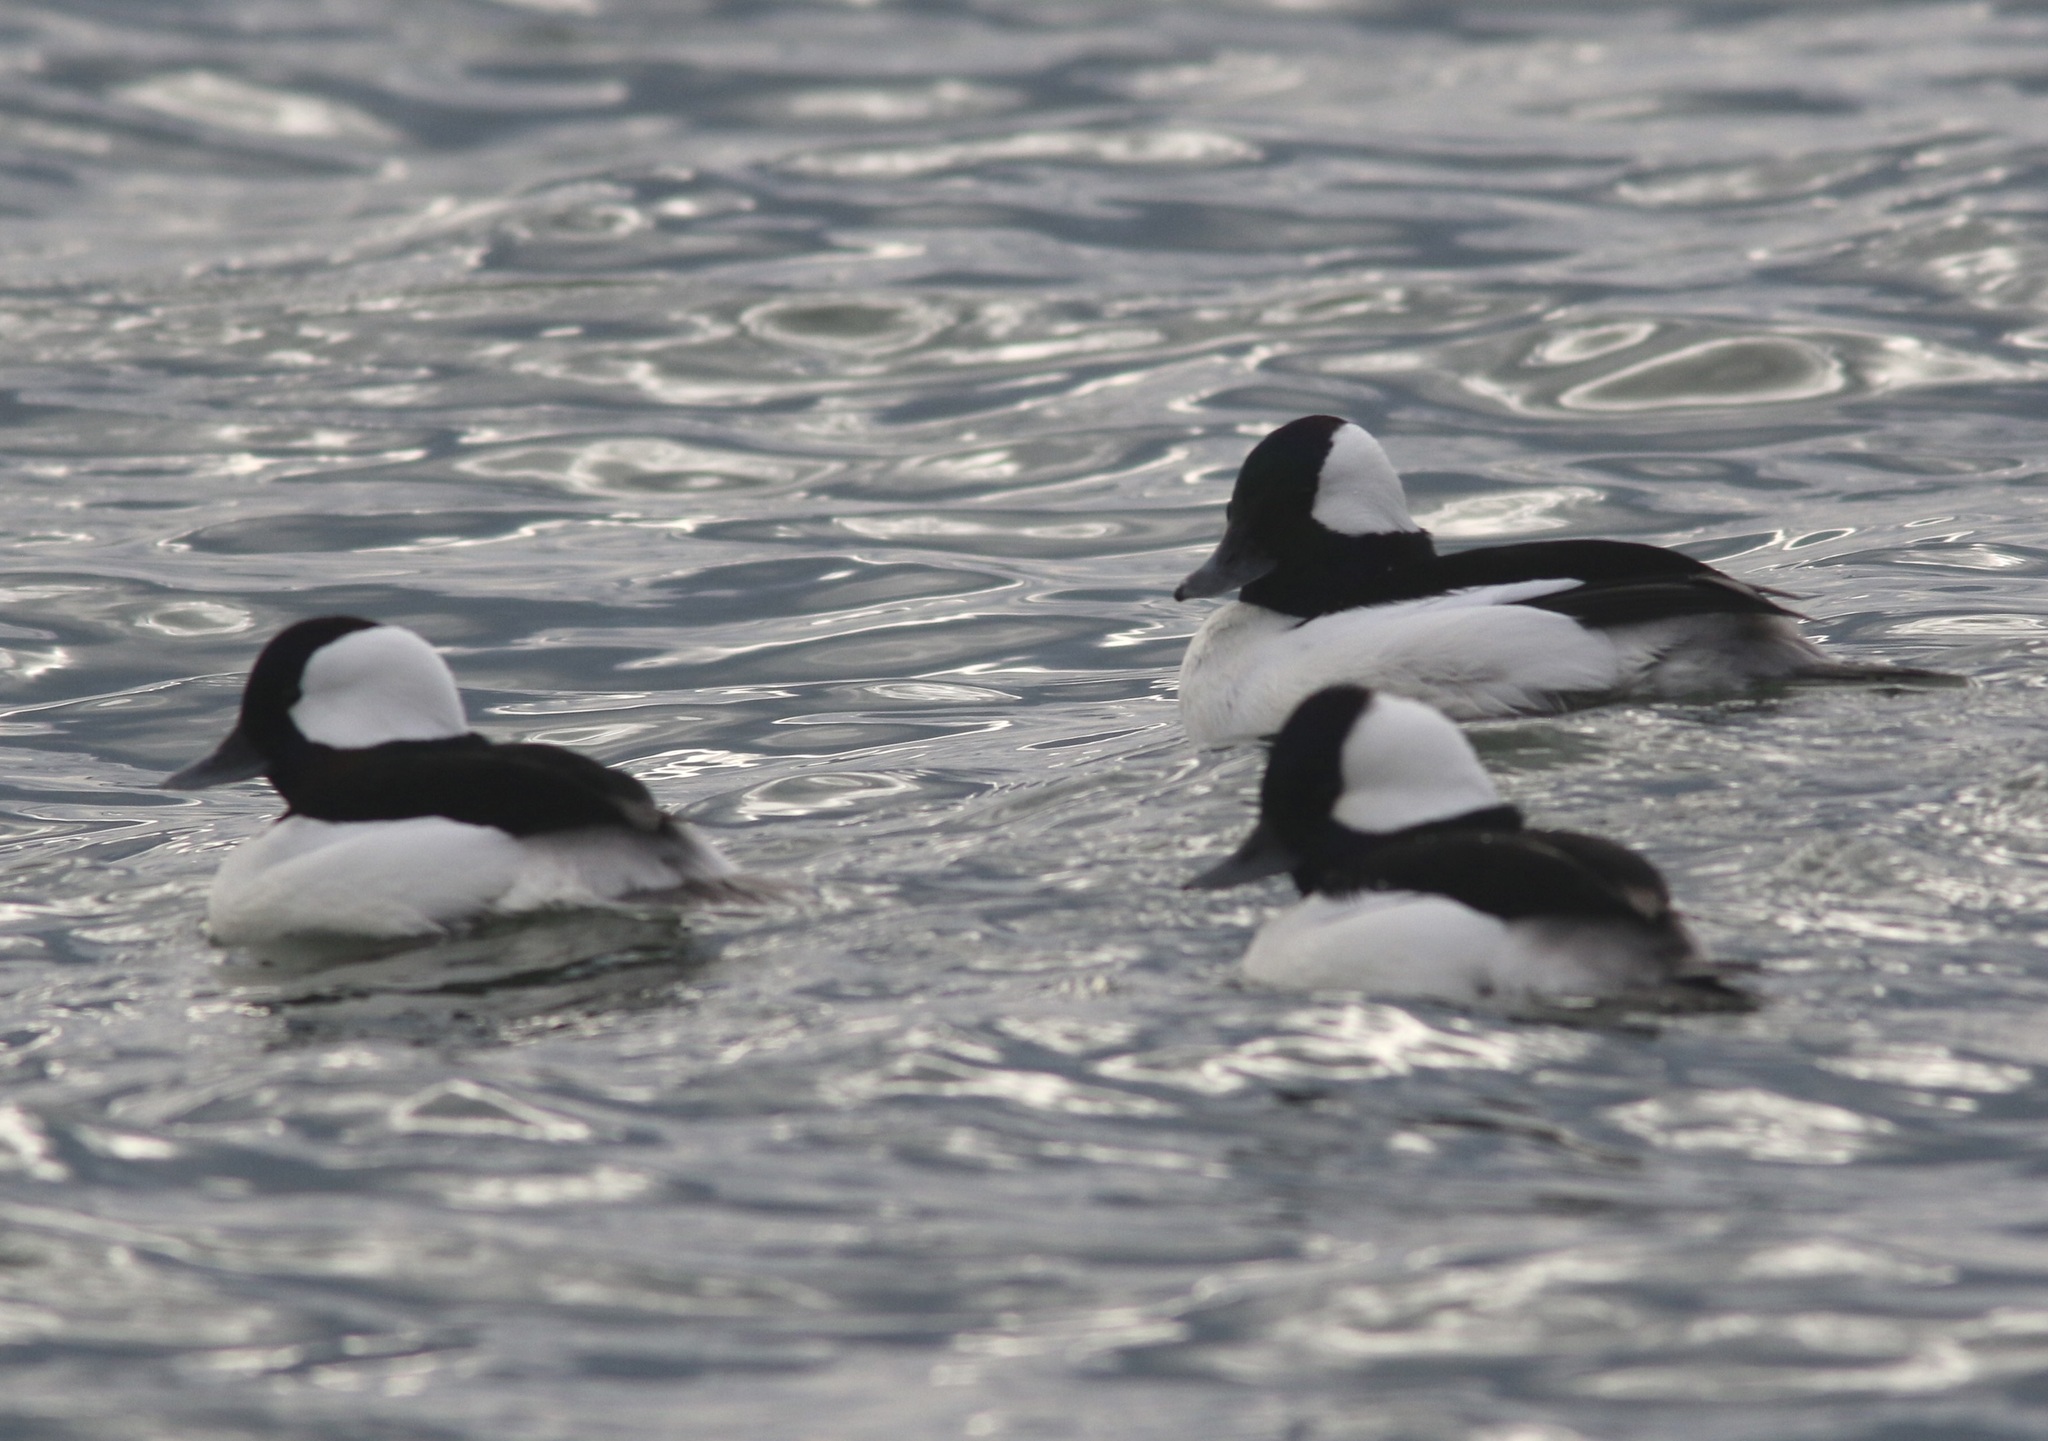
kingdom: Animalia
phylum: Chordata
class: Aves
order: Anseriformes
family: Anatidae
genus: Bucephala
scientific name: Bucephala albeola
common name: Bufflehead
